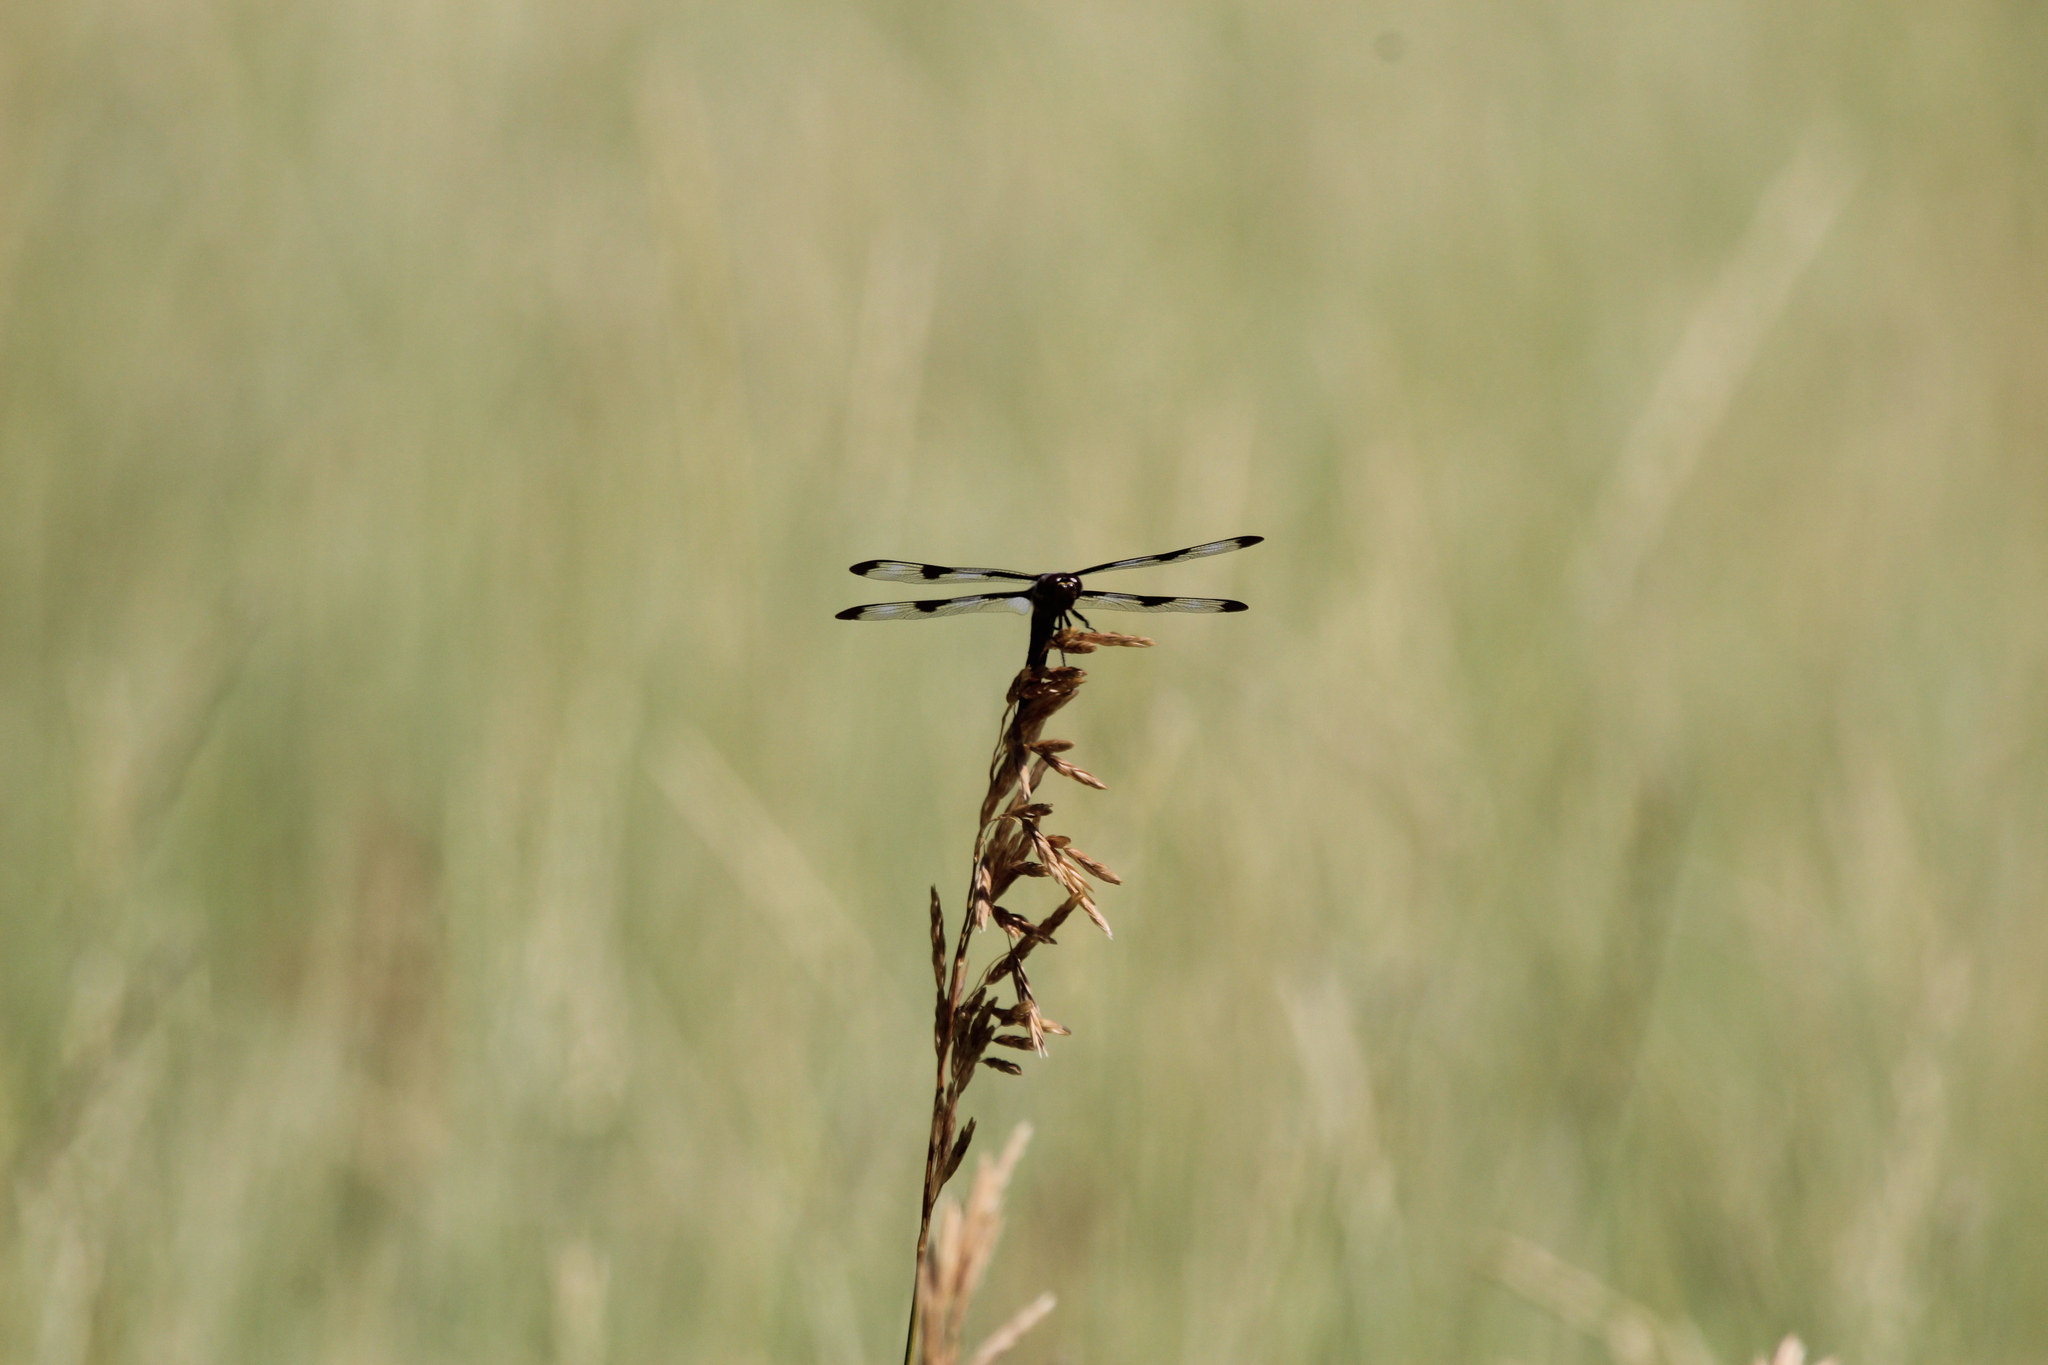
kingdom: Animalia
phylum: Arthropoda
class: Insecta
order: Odonata
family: Libellulidae
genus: Libellula
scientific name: Libellula pulchella
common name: Twelve-spotted skimmer
